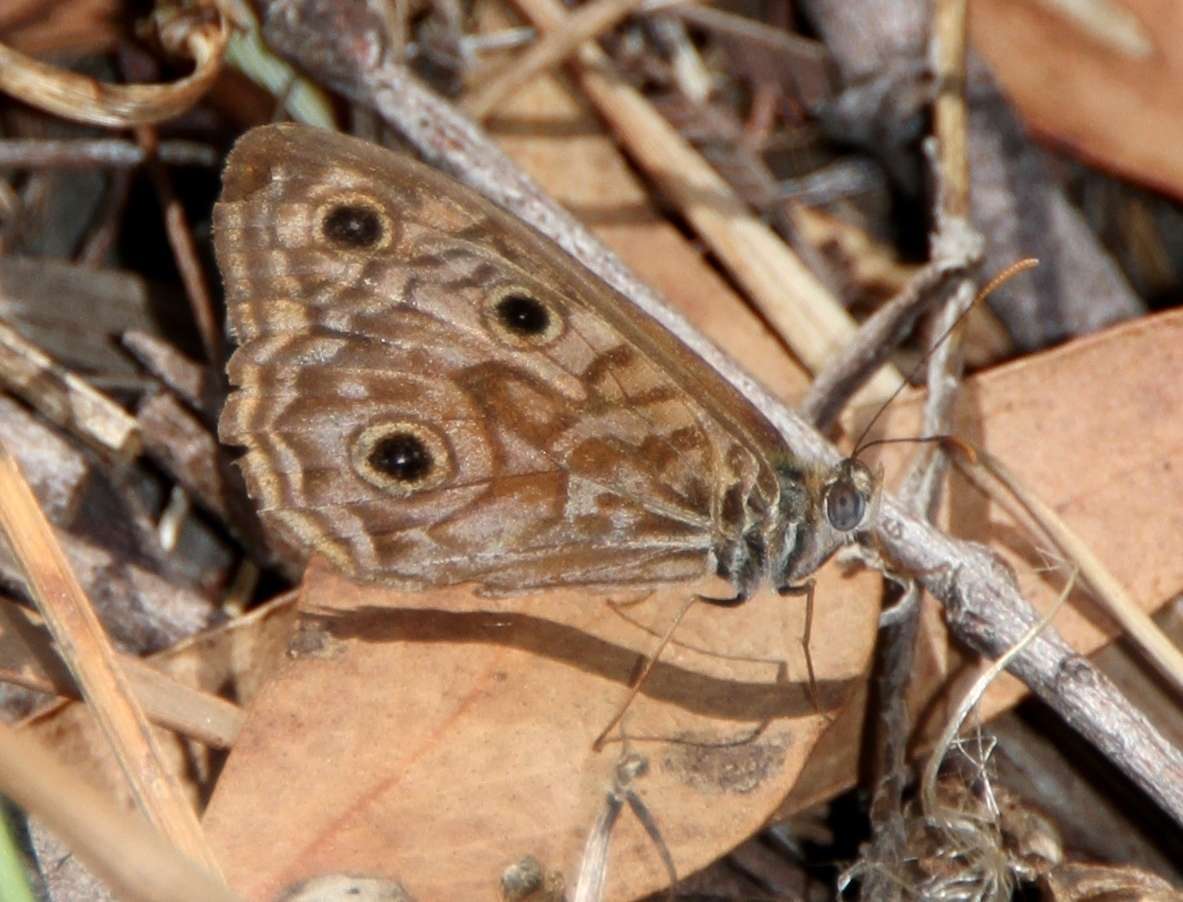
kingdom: Animalia
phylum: Arthropoda
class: Insecta
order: Lepidoptera
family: Nymphalidae
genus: Geitoneura
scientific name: Geitoneura acantha
